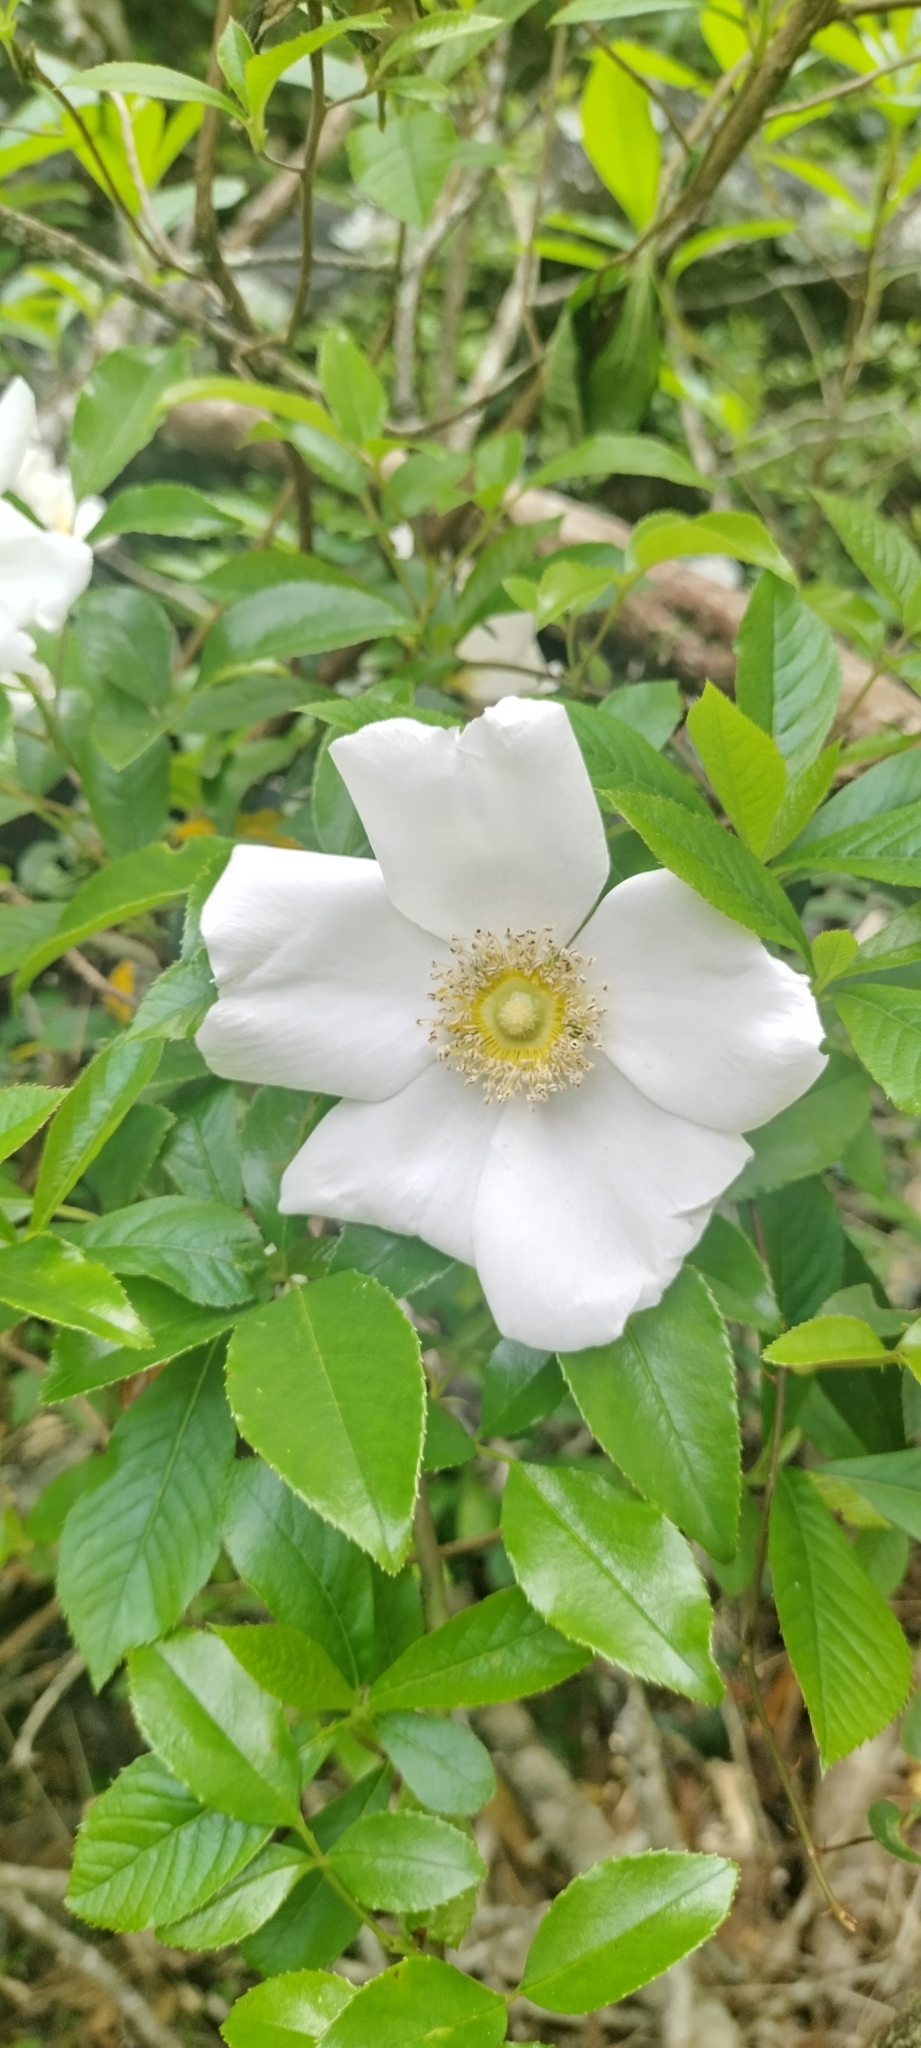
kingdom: Plantae
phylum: Tracheophyta
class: Magnoliopsida
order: Rosales
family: Rosaceae
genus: Rosa
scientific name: Rosa laevigata
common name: Cherokee rose
